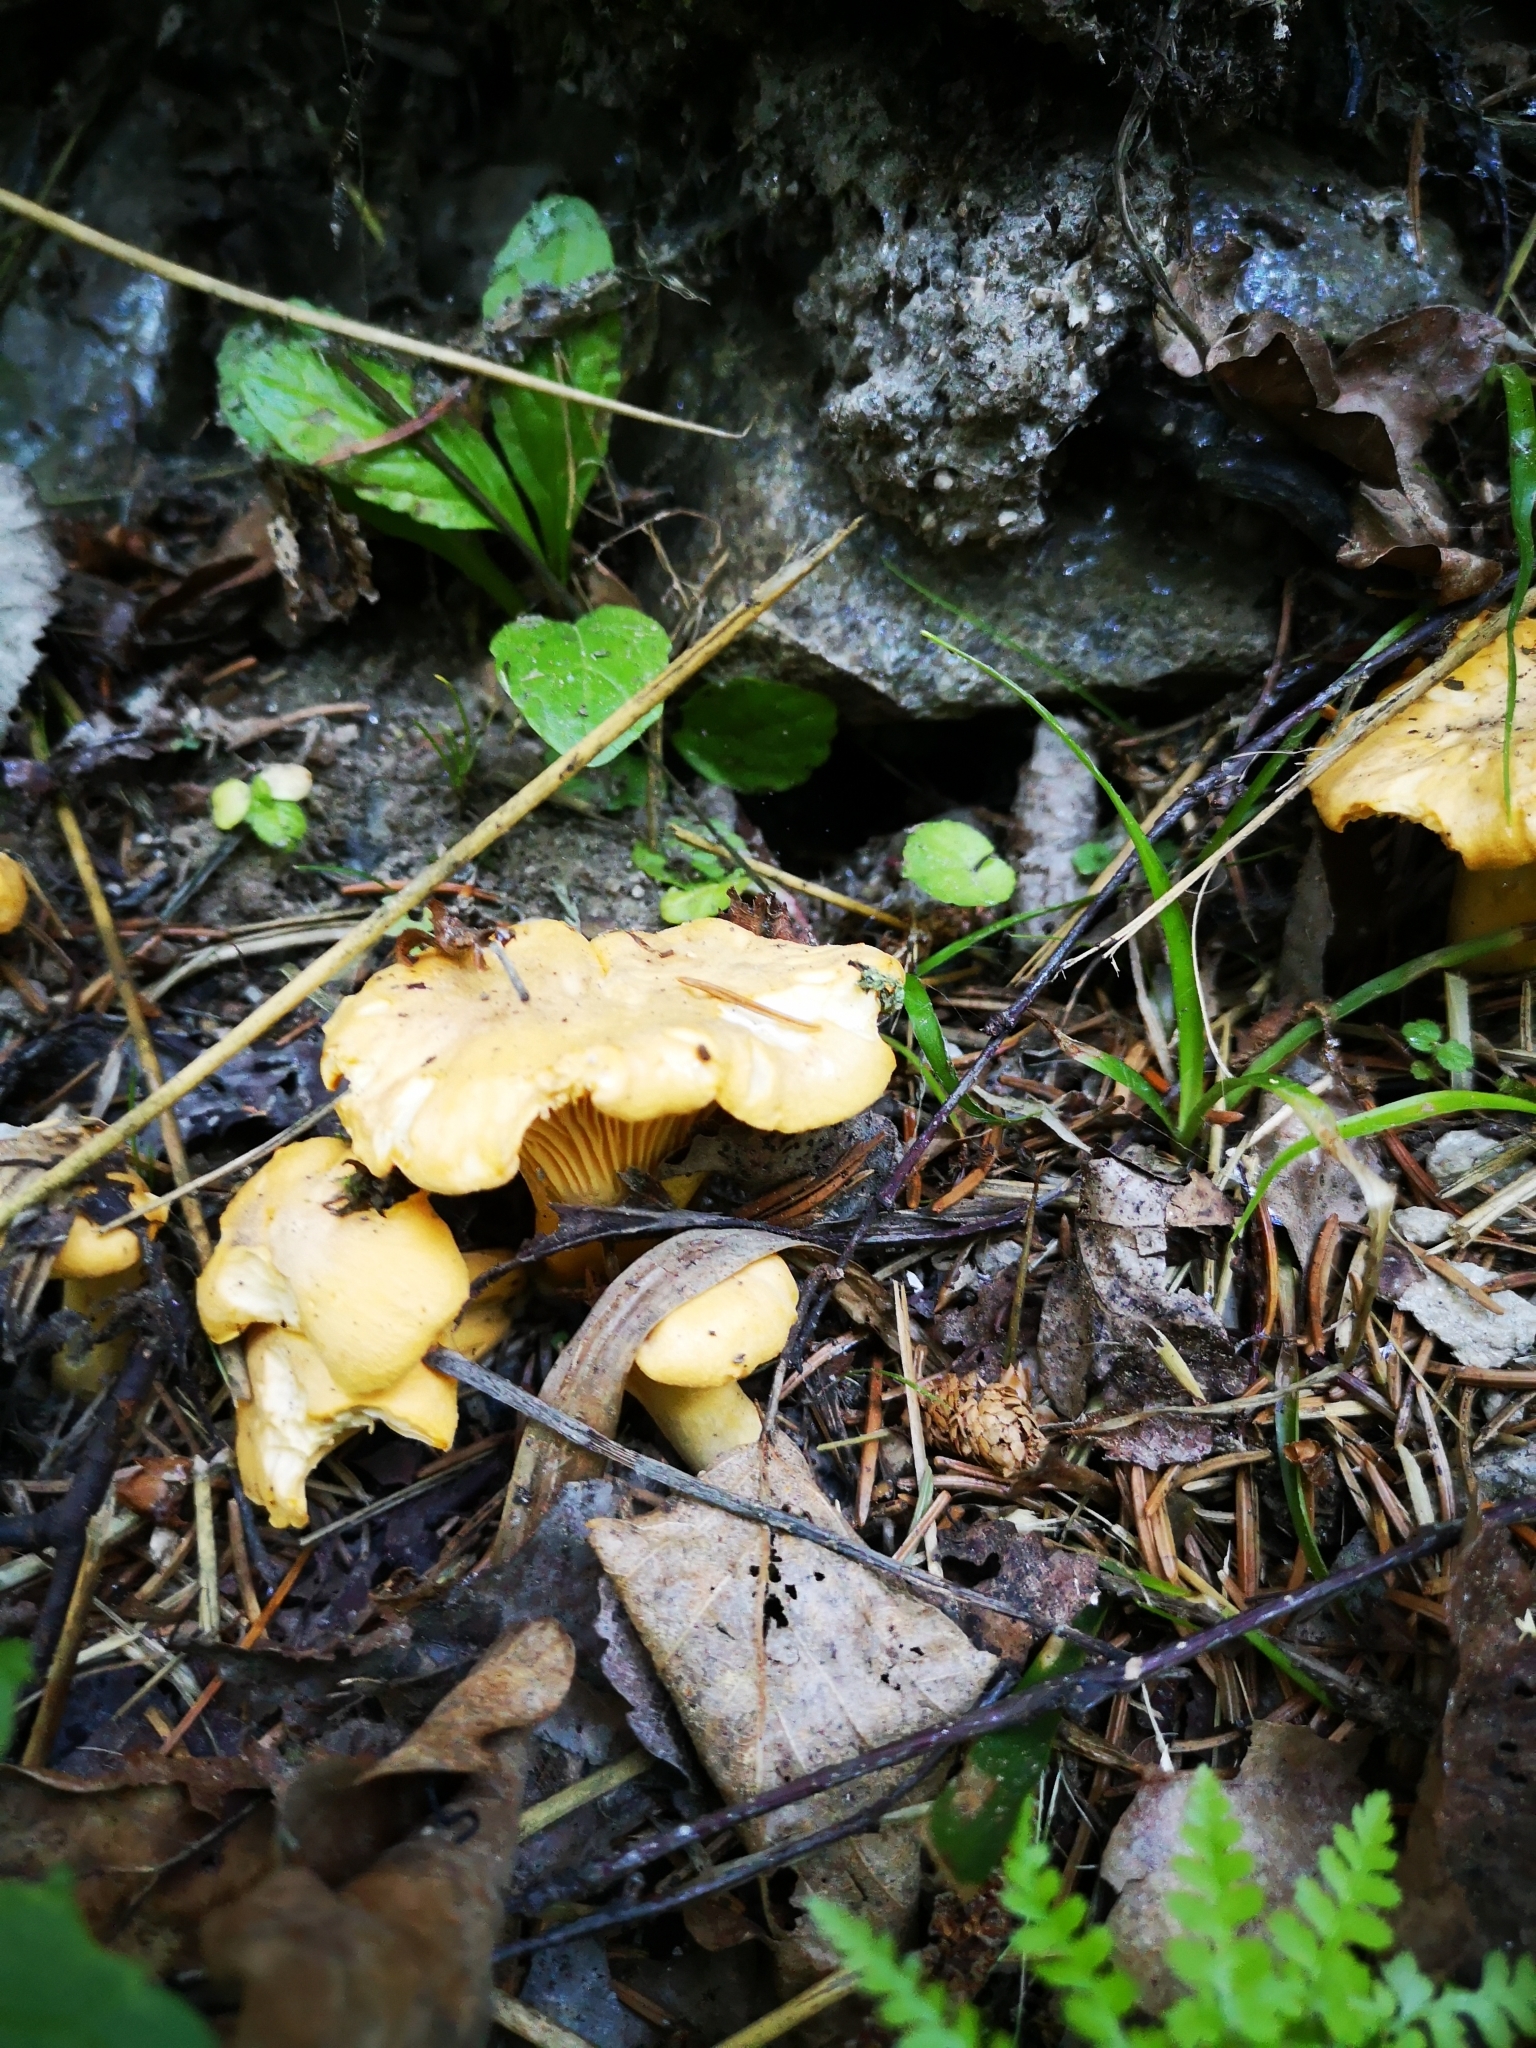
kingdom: Fungi
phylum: Basidiomycota
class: Agaricomycetes
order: Cantharellales
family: Hydnaceae
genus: Cantharellus
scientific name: Cantharellus cibarius
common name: Chanterelle
